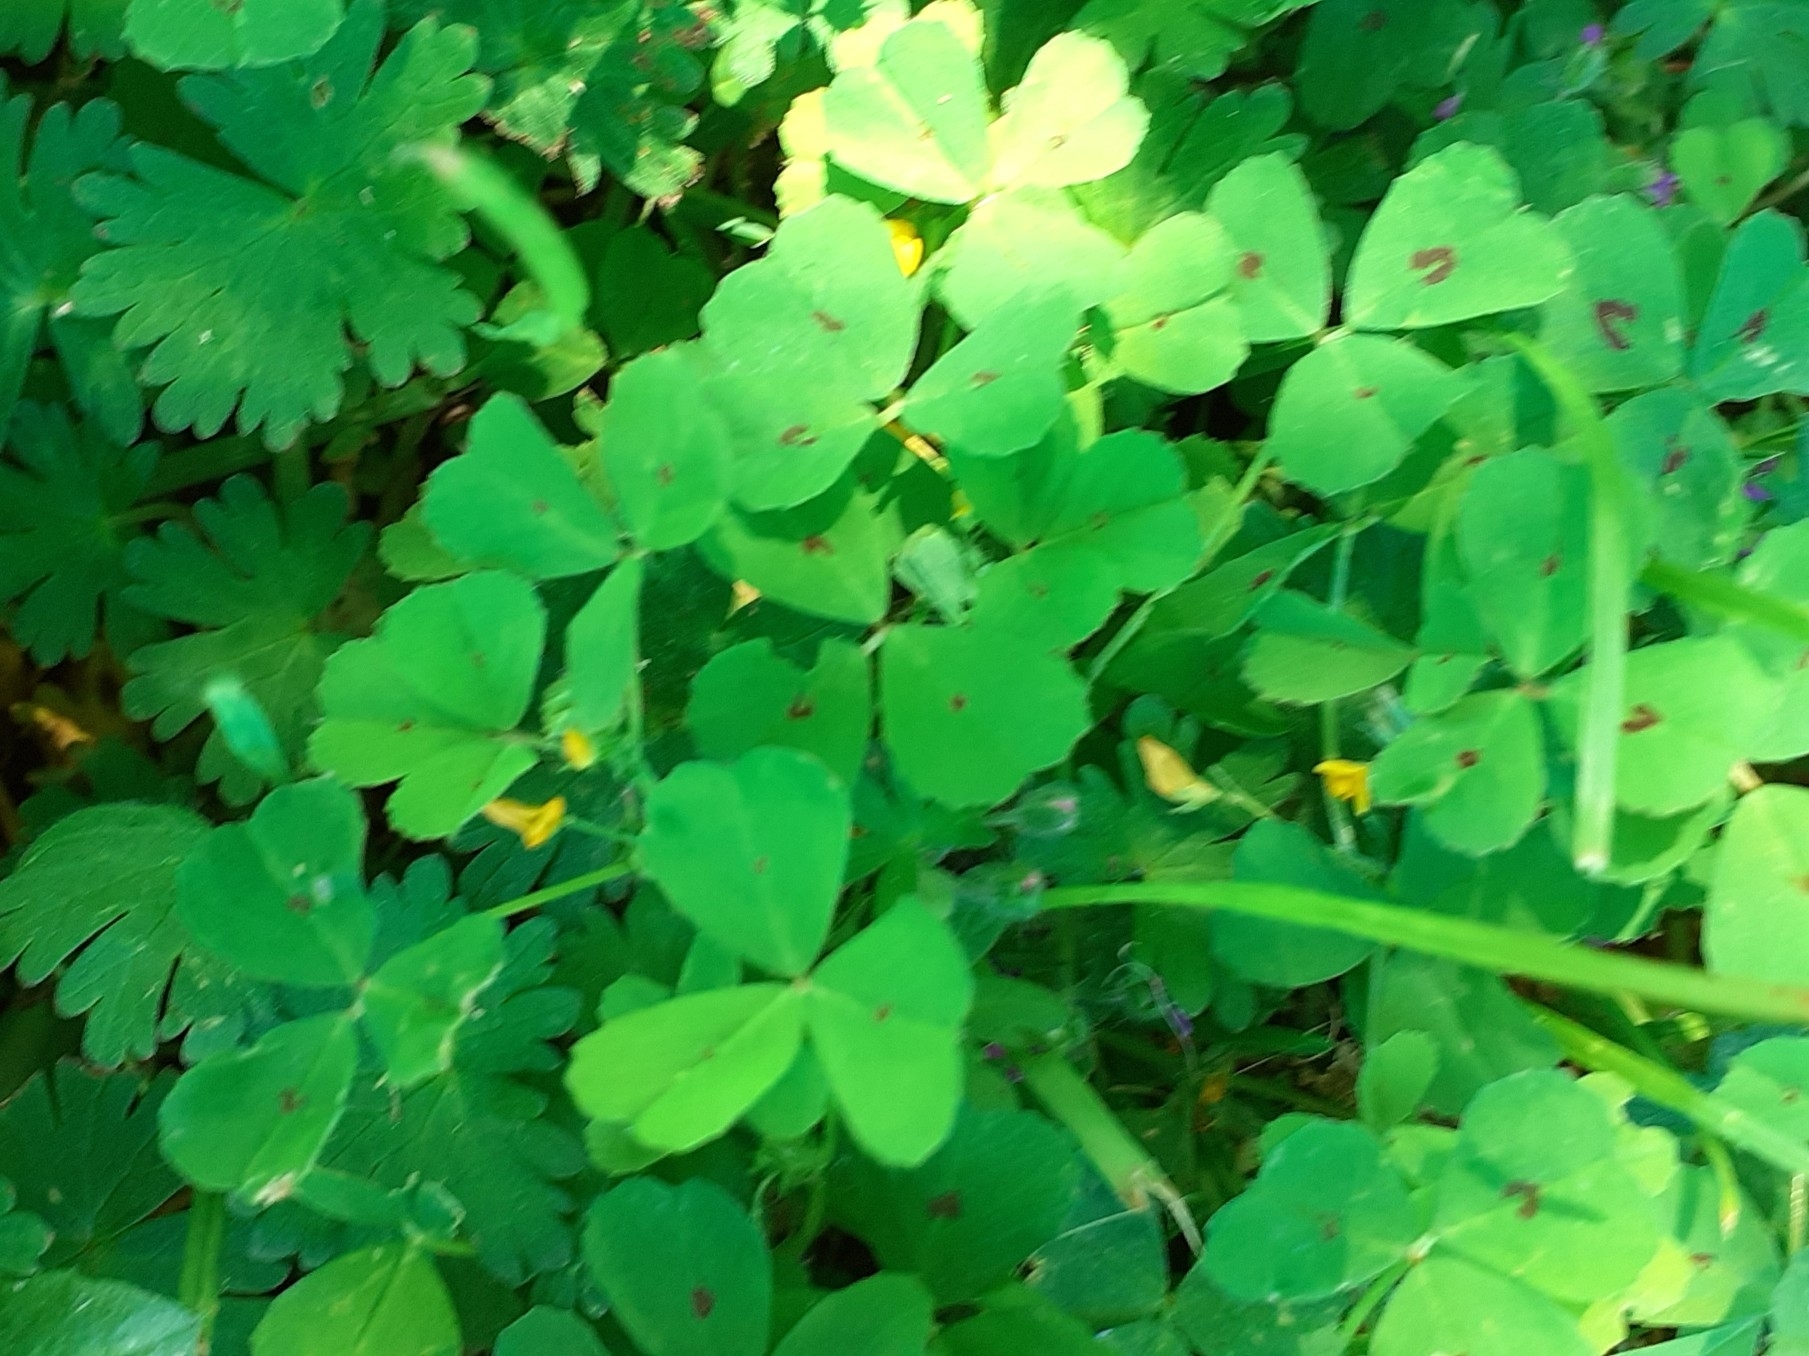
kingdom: Plantae
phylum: Tracheophyta
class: Magnoliopsida
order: Fabales
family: Fabaceae
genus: Medicago
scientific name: Medicago arabica
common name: Spotted medick
